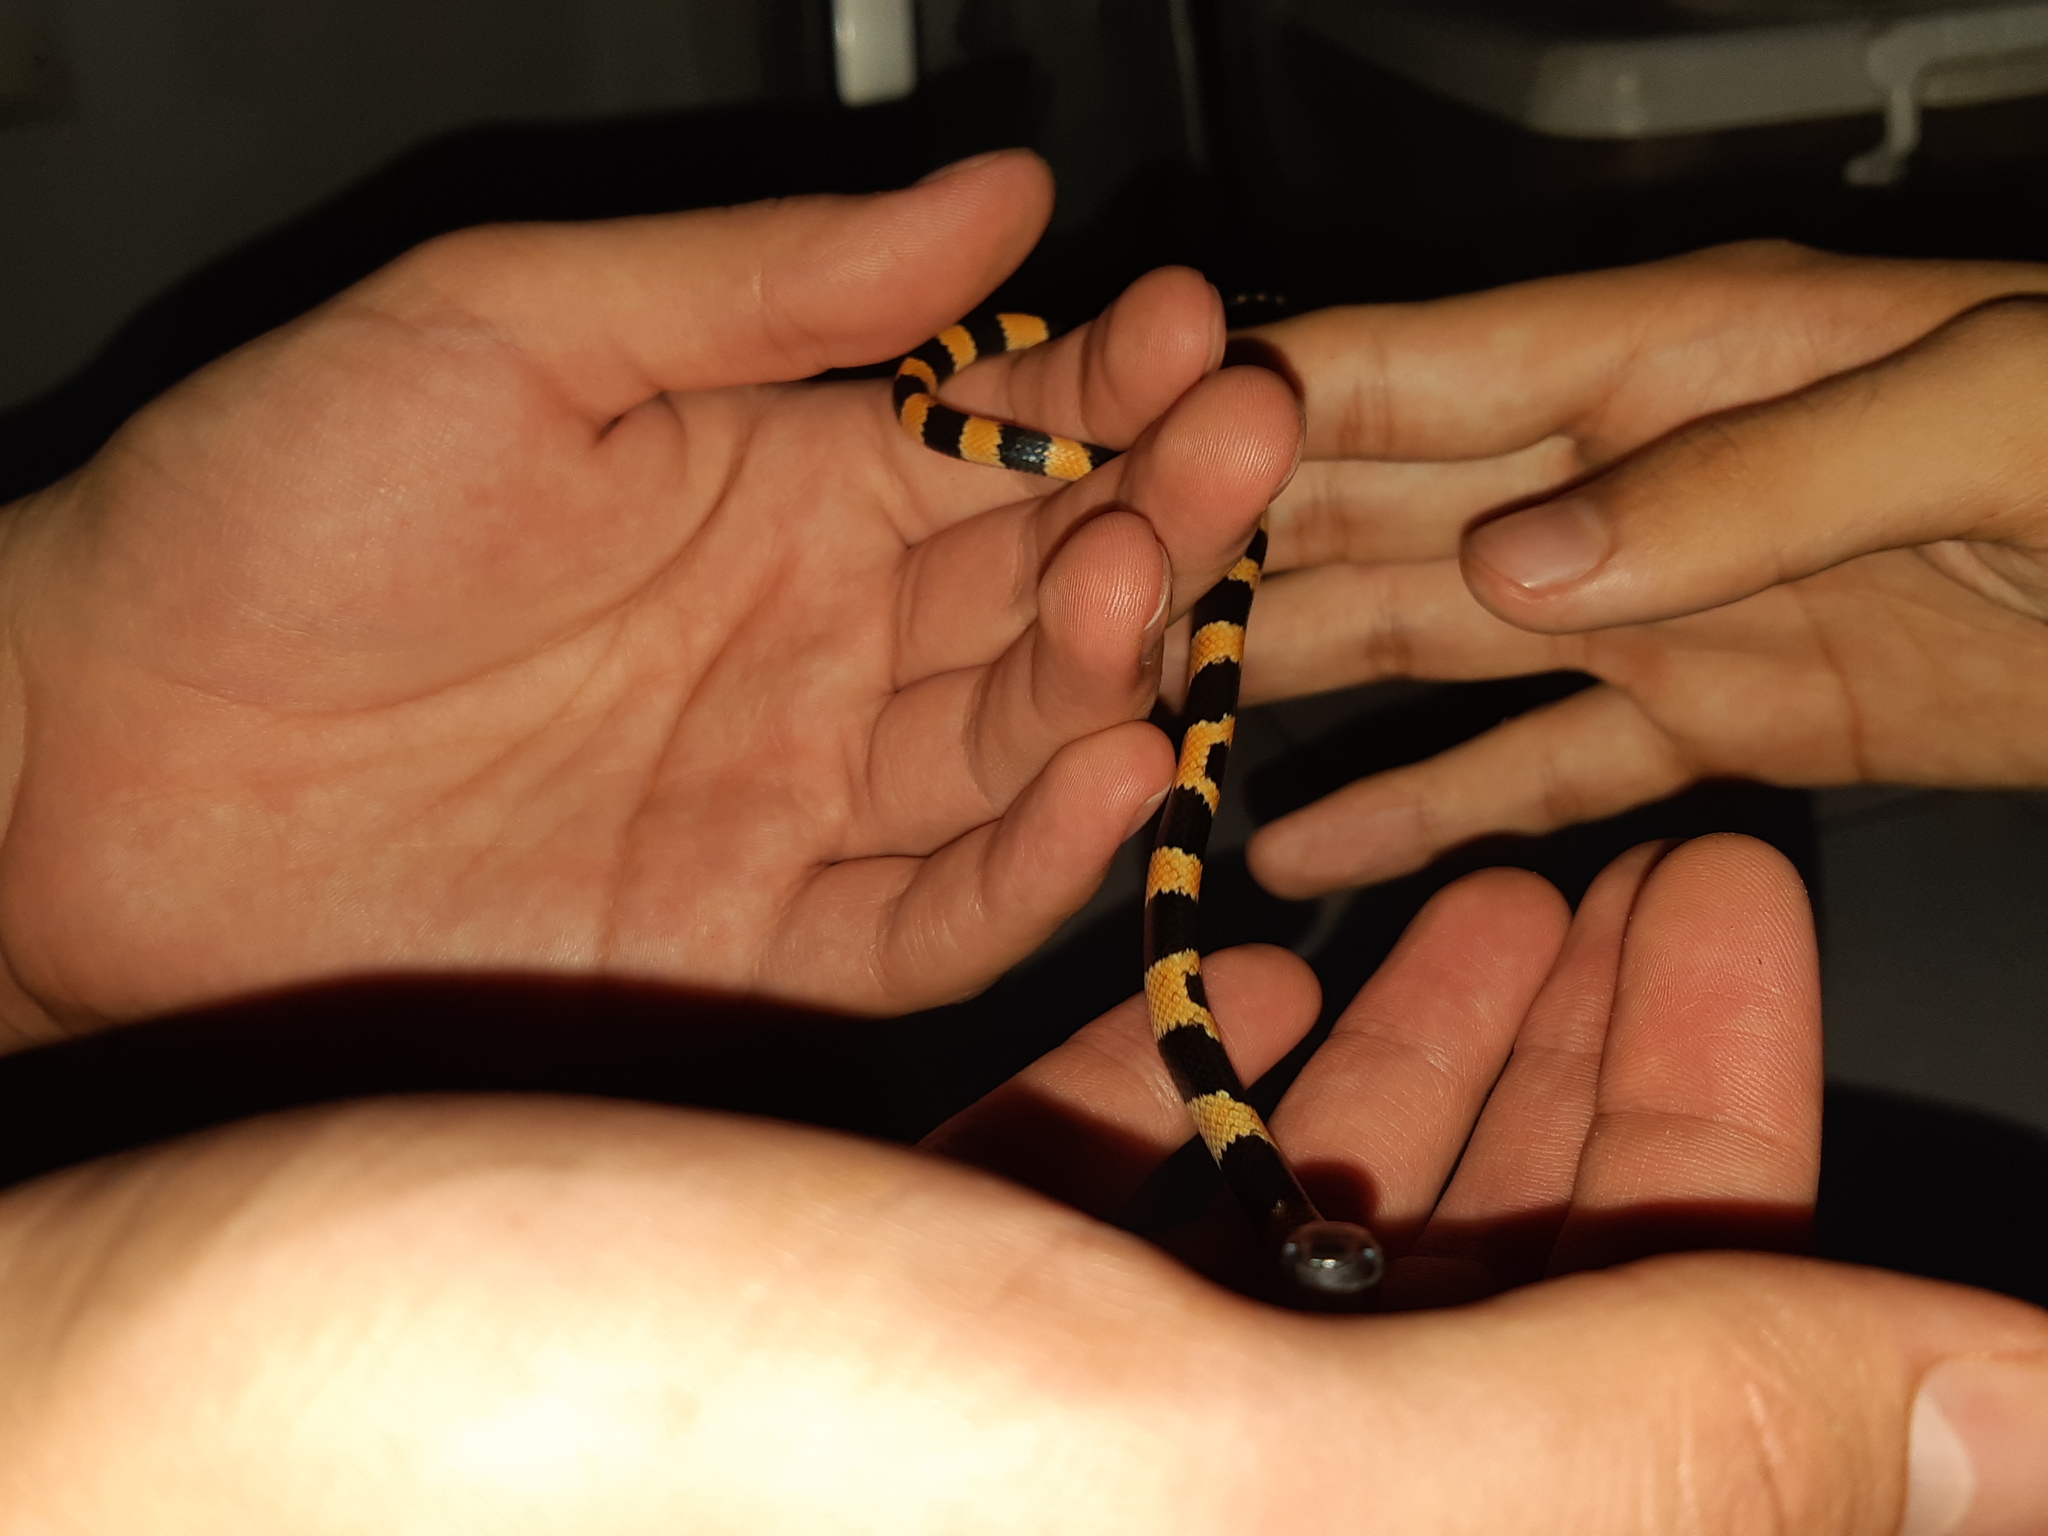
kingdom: Animalia
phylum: Chordata
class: Squamata
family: Colubridae
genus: Oxyrhopus
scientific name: Oxyrhopus petolarius
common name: Forest flame snake
